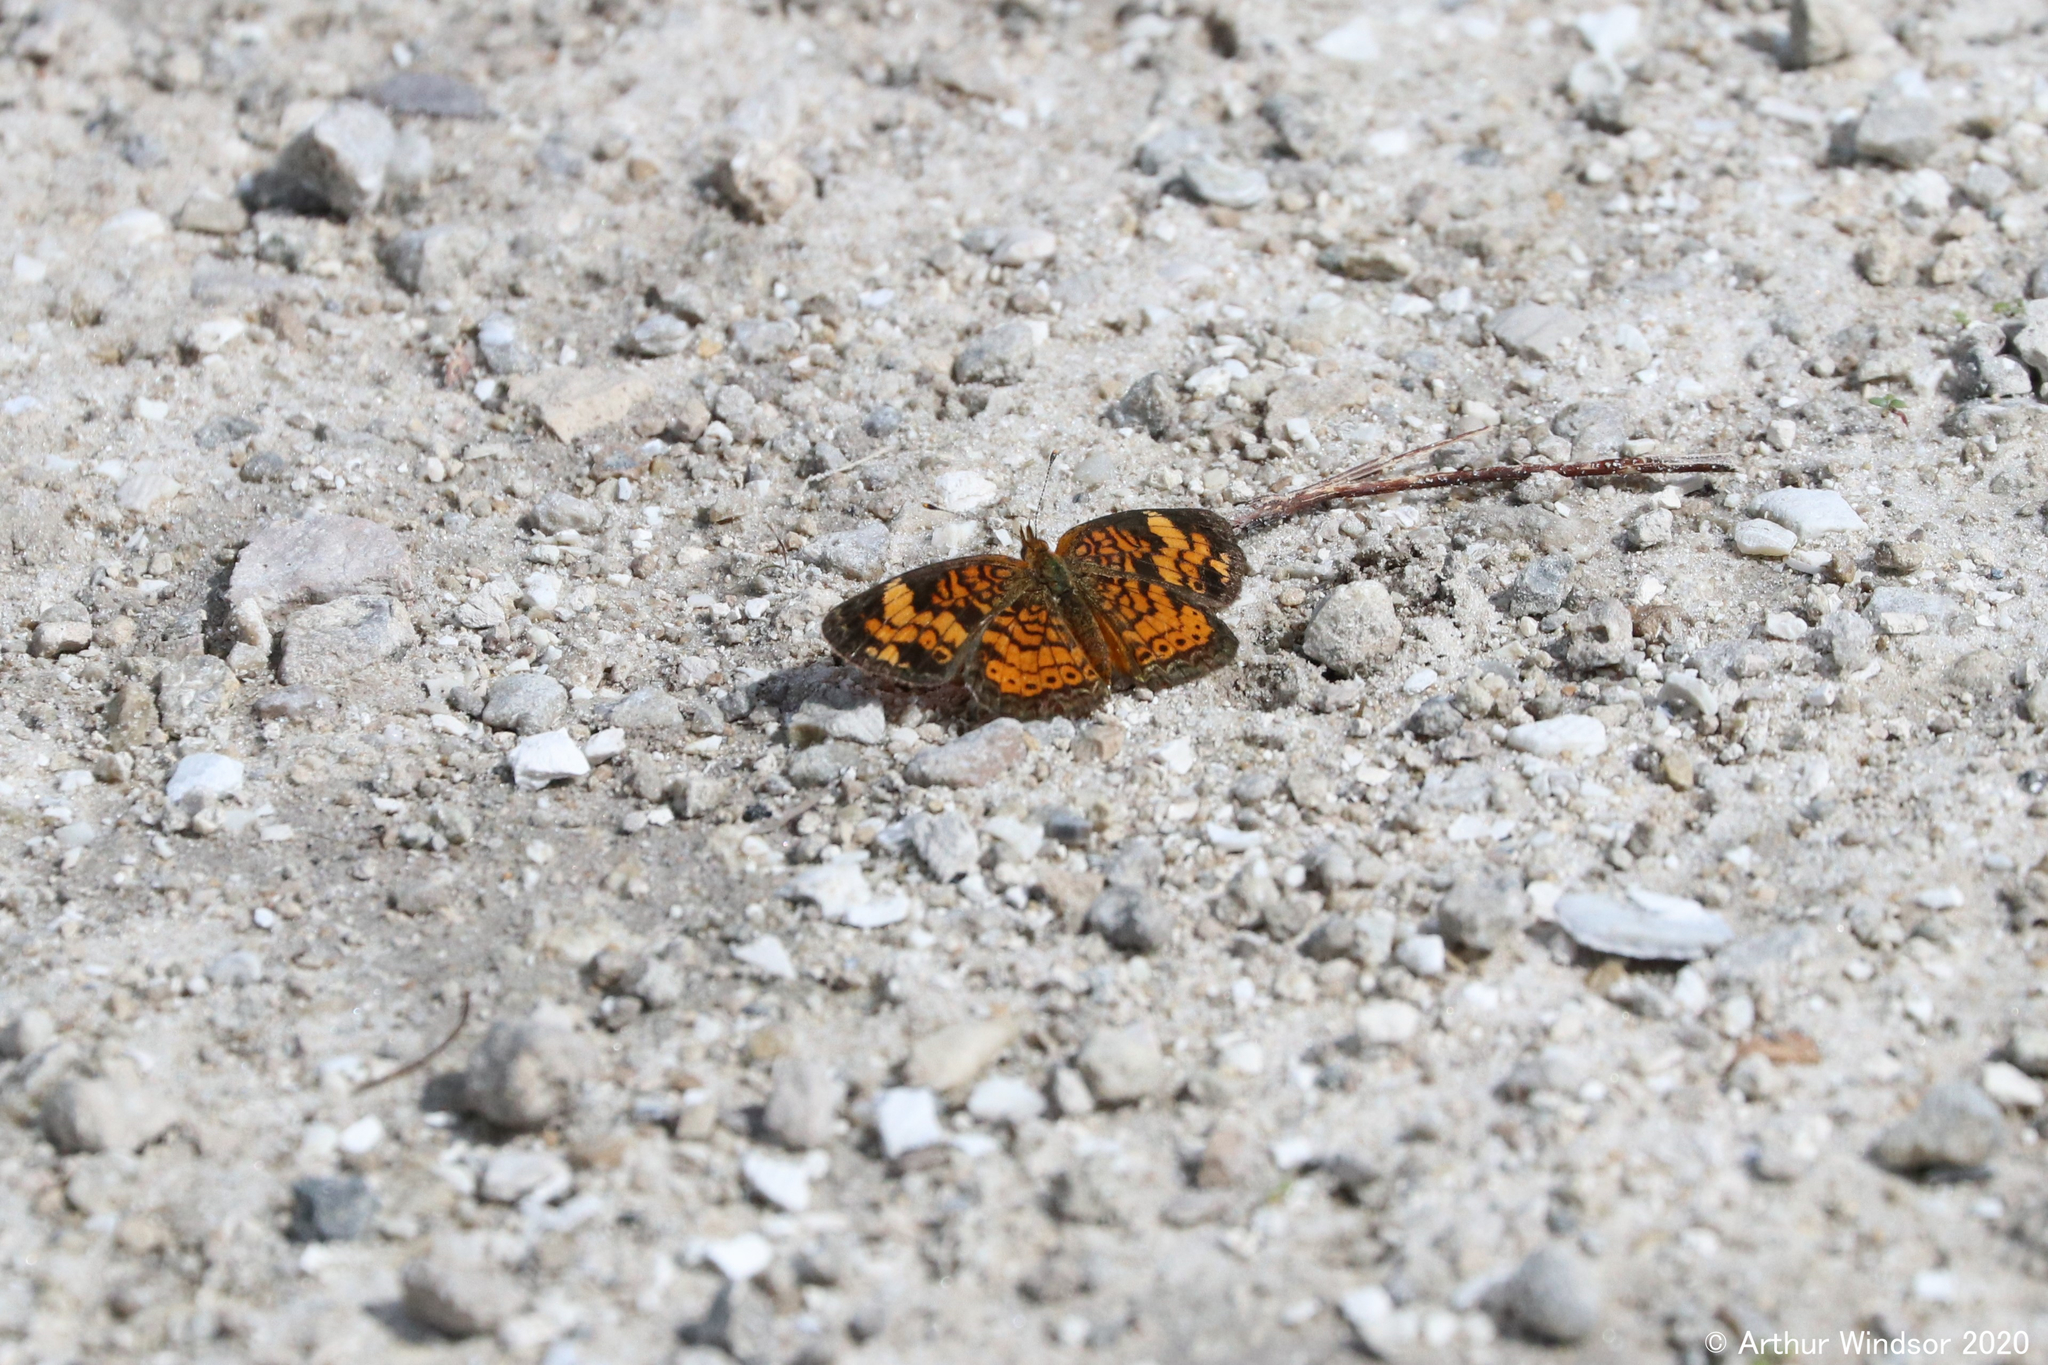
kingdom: Animalia
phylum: Arthropoda
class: Insecta
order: Lepidoptera
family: Nymphalidae
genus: Phyciodes
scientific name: Phyciodes tharos
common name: Pearl crescent
